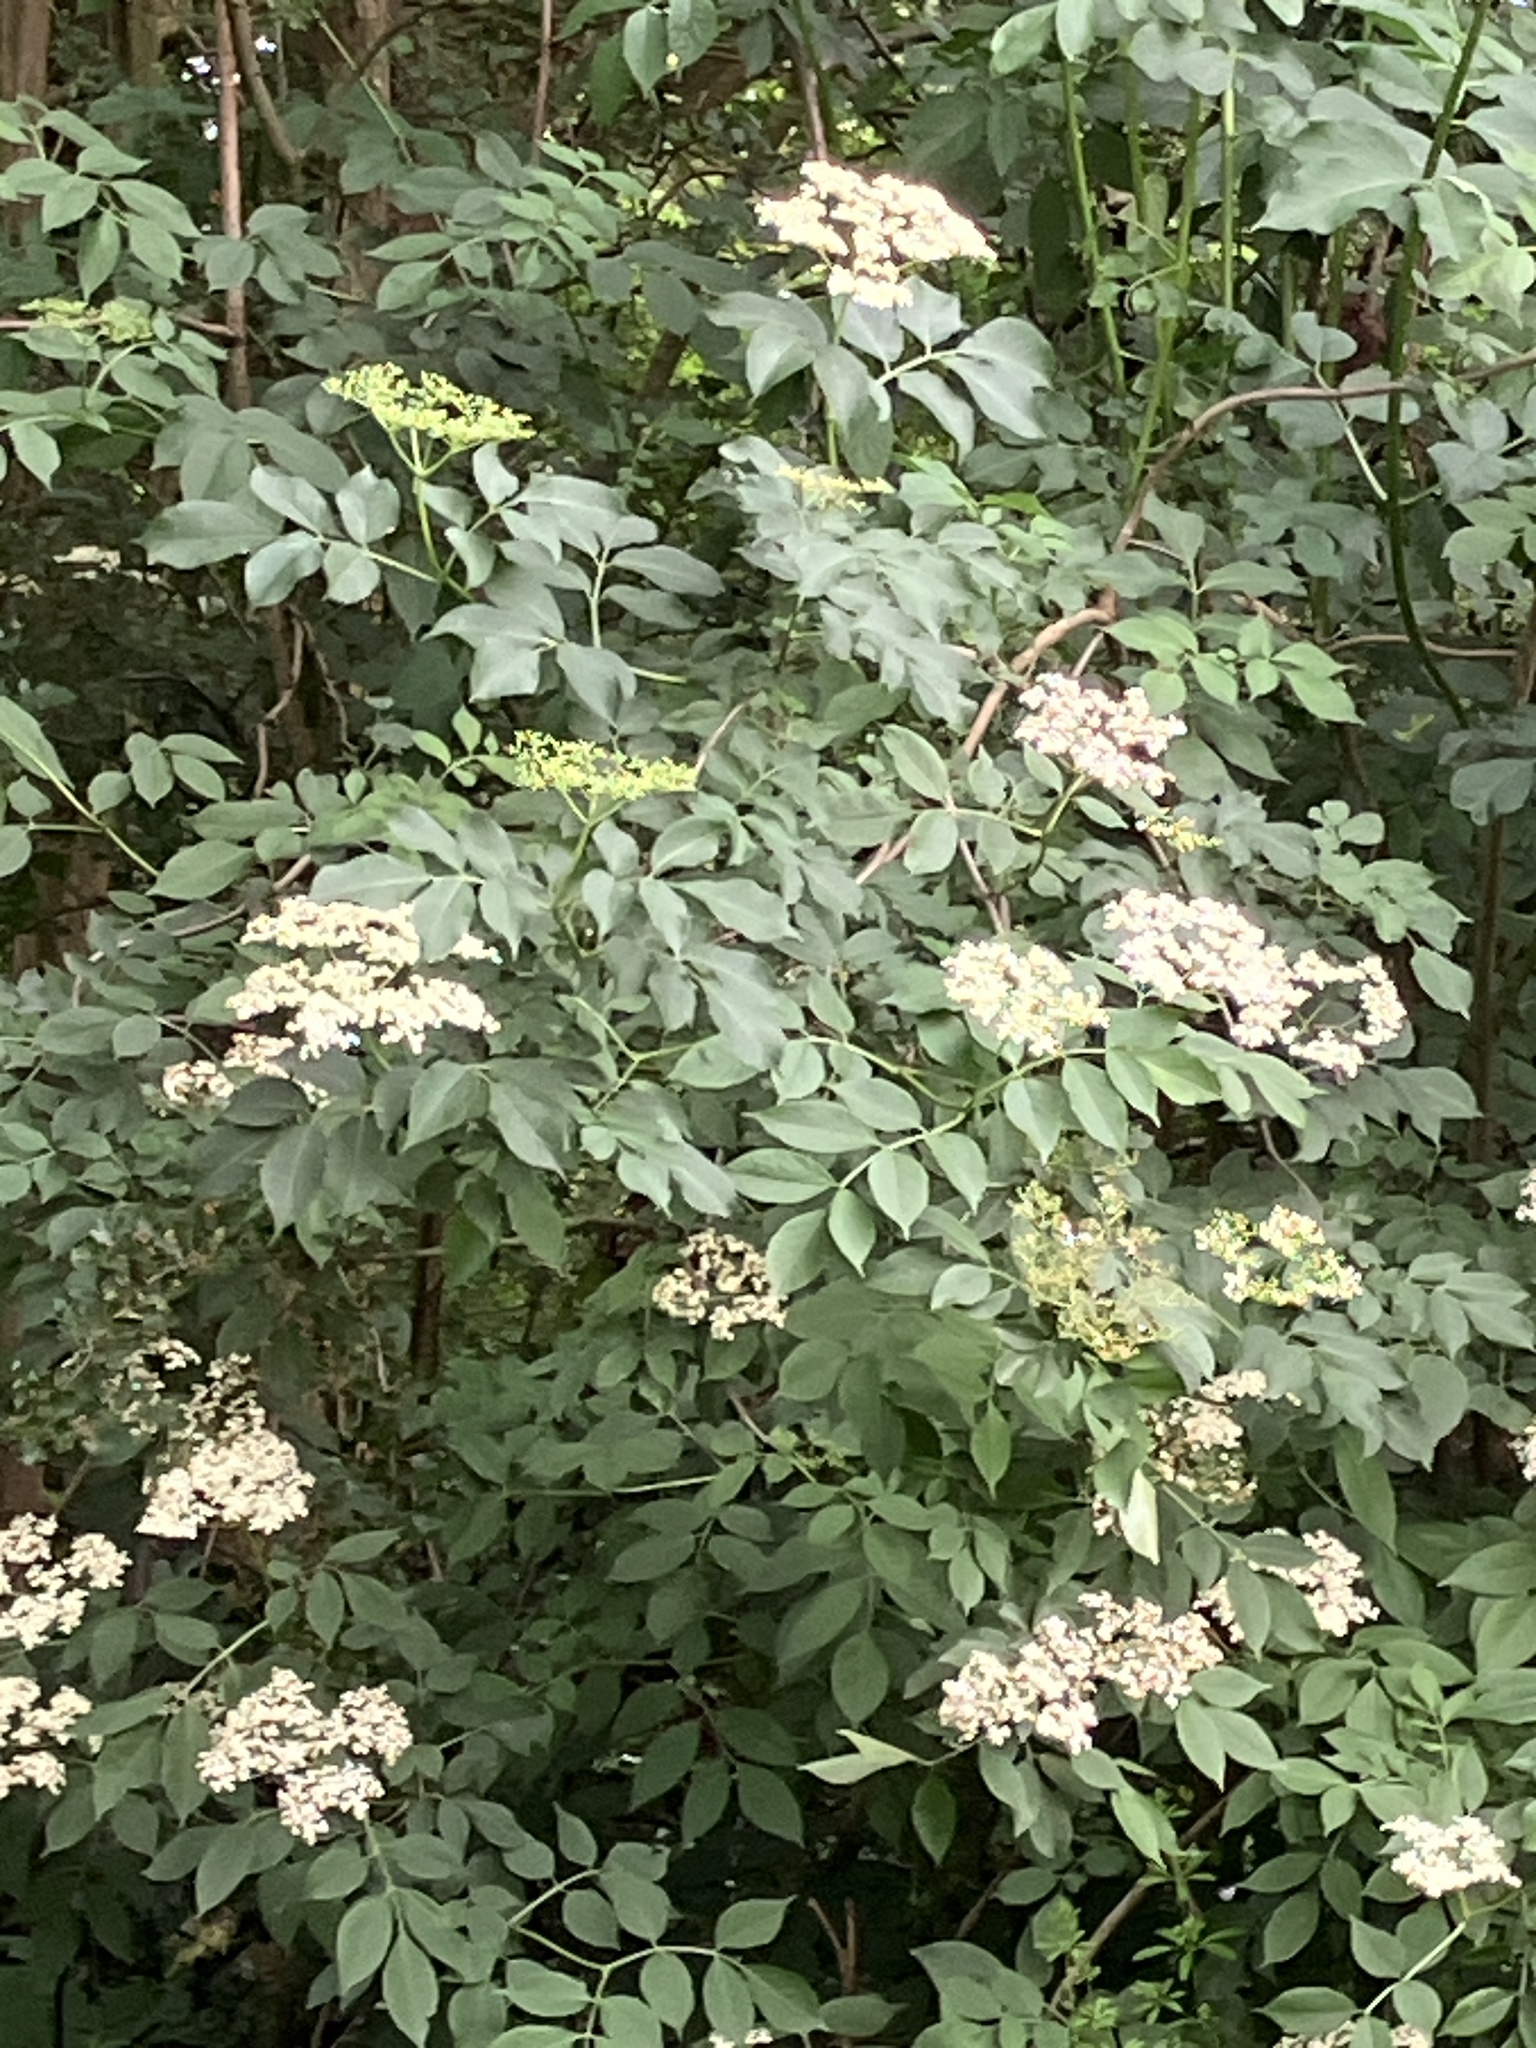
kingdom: Plantae
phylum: Tracheophyta
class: Magnoliopsida
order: Dipsacales
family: Viburnaceae
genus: Sambucus
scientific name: Sambucus nigra
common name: Elder
